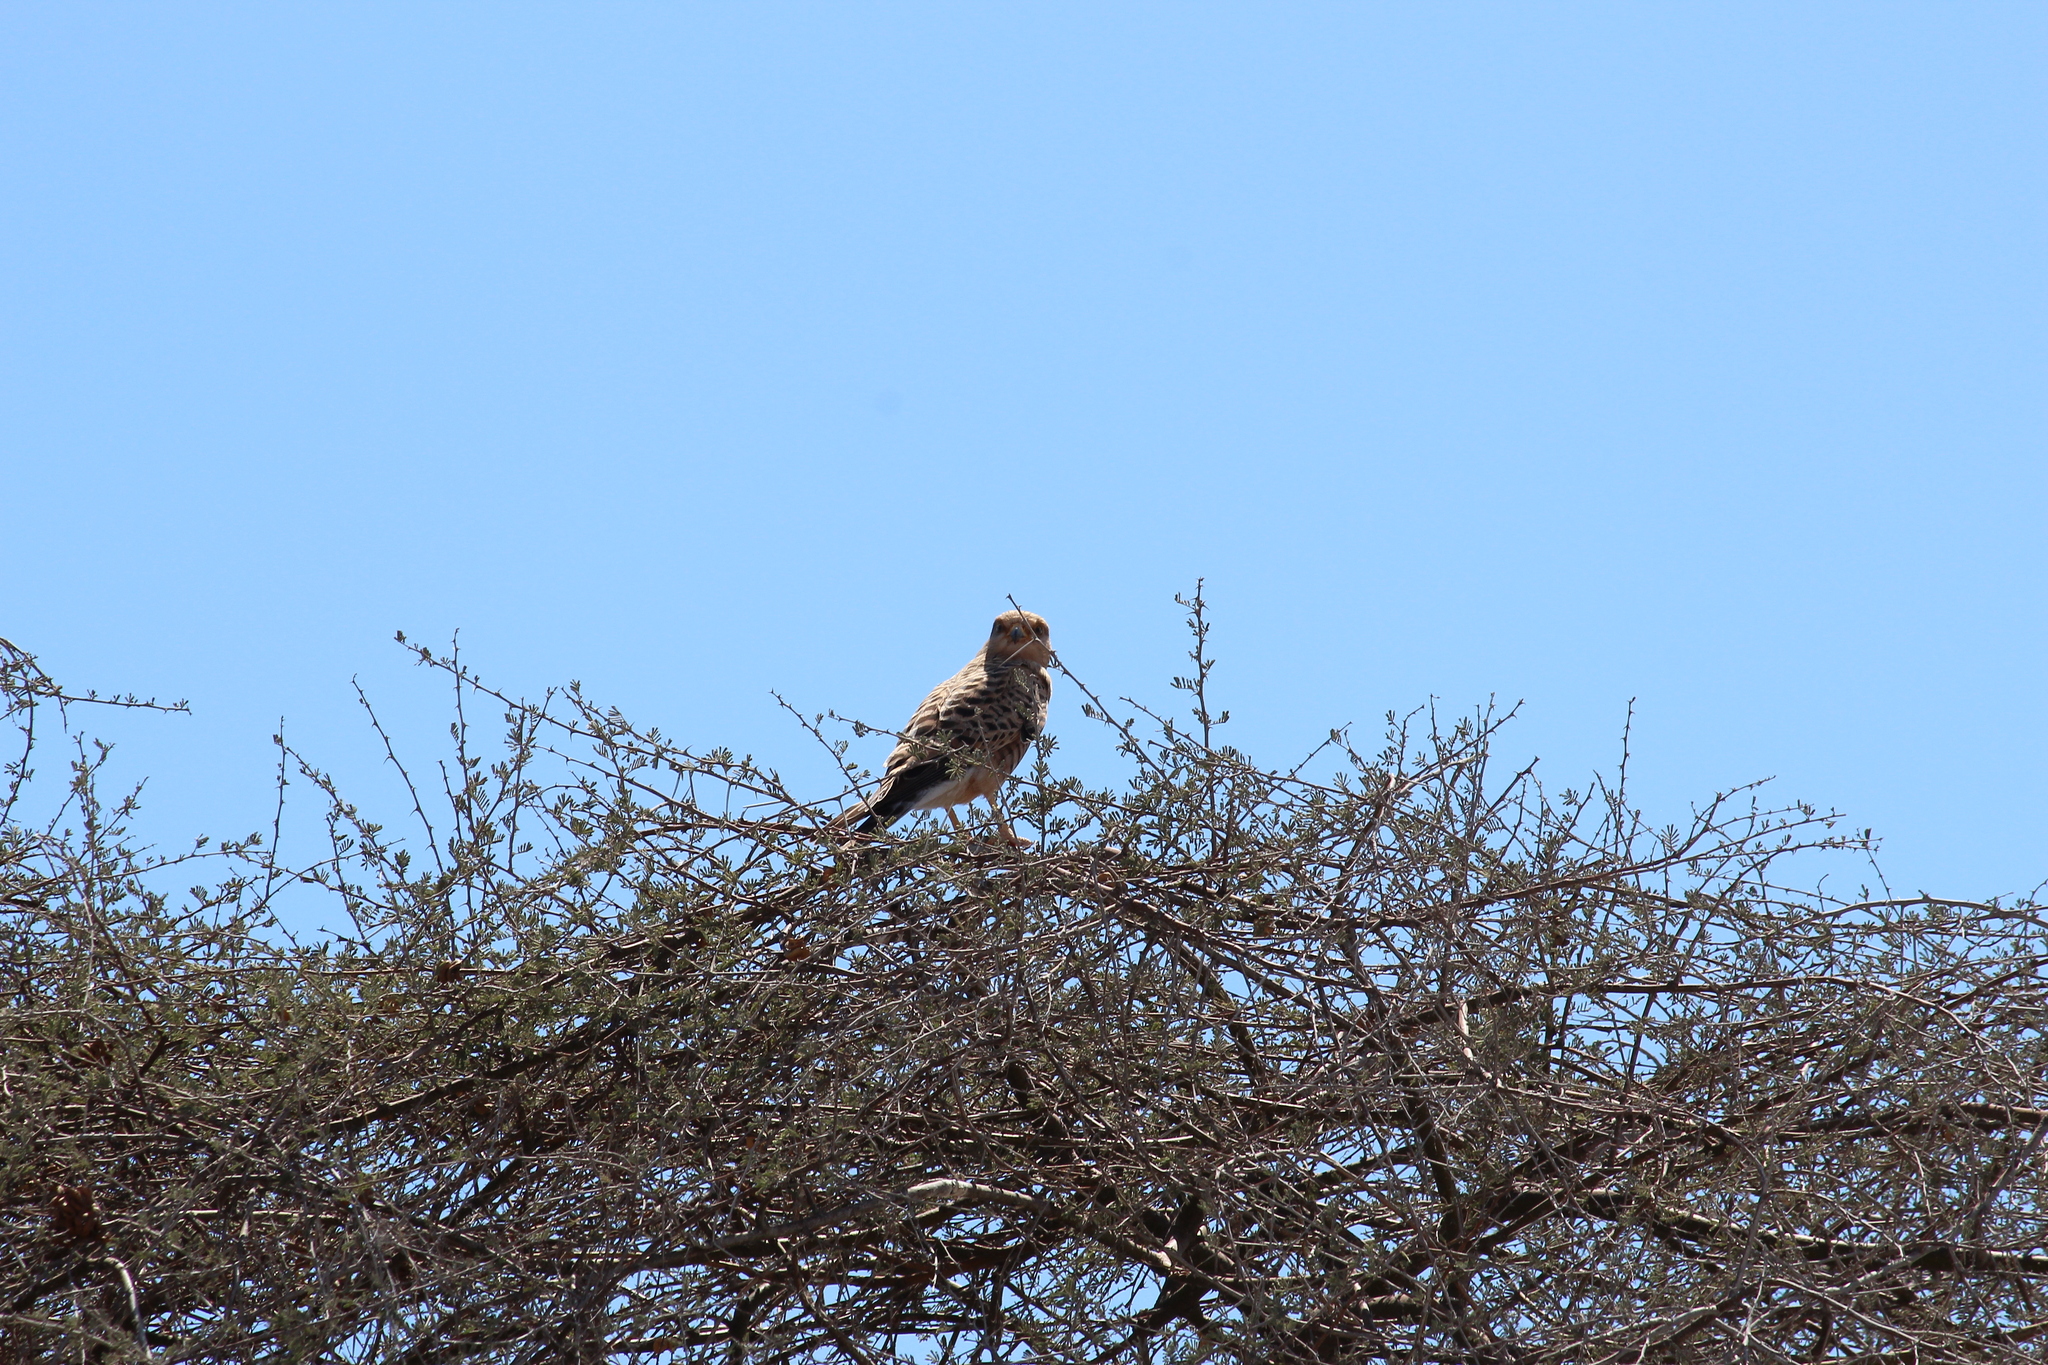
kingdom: Animalia
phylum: Chordata
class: Aves
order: Falconiformes
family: Falconidae
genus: Falco
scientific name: Falco rupicoloides
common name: Greater kestrel
